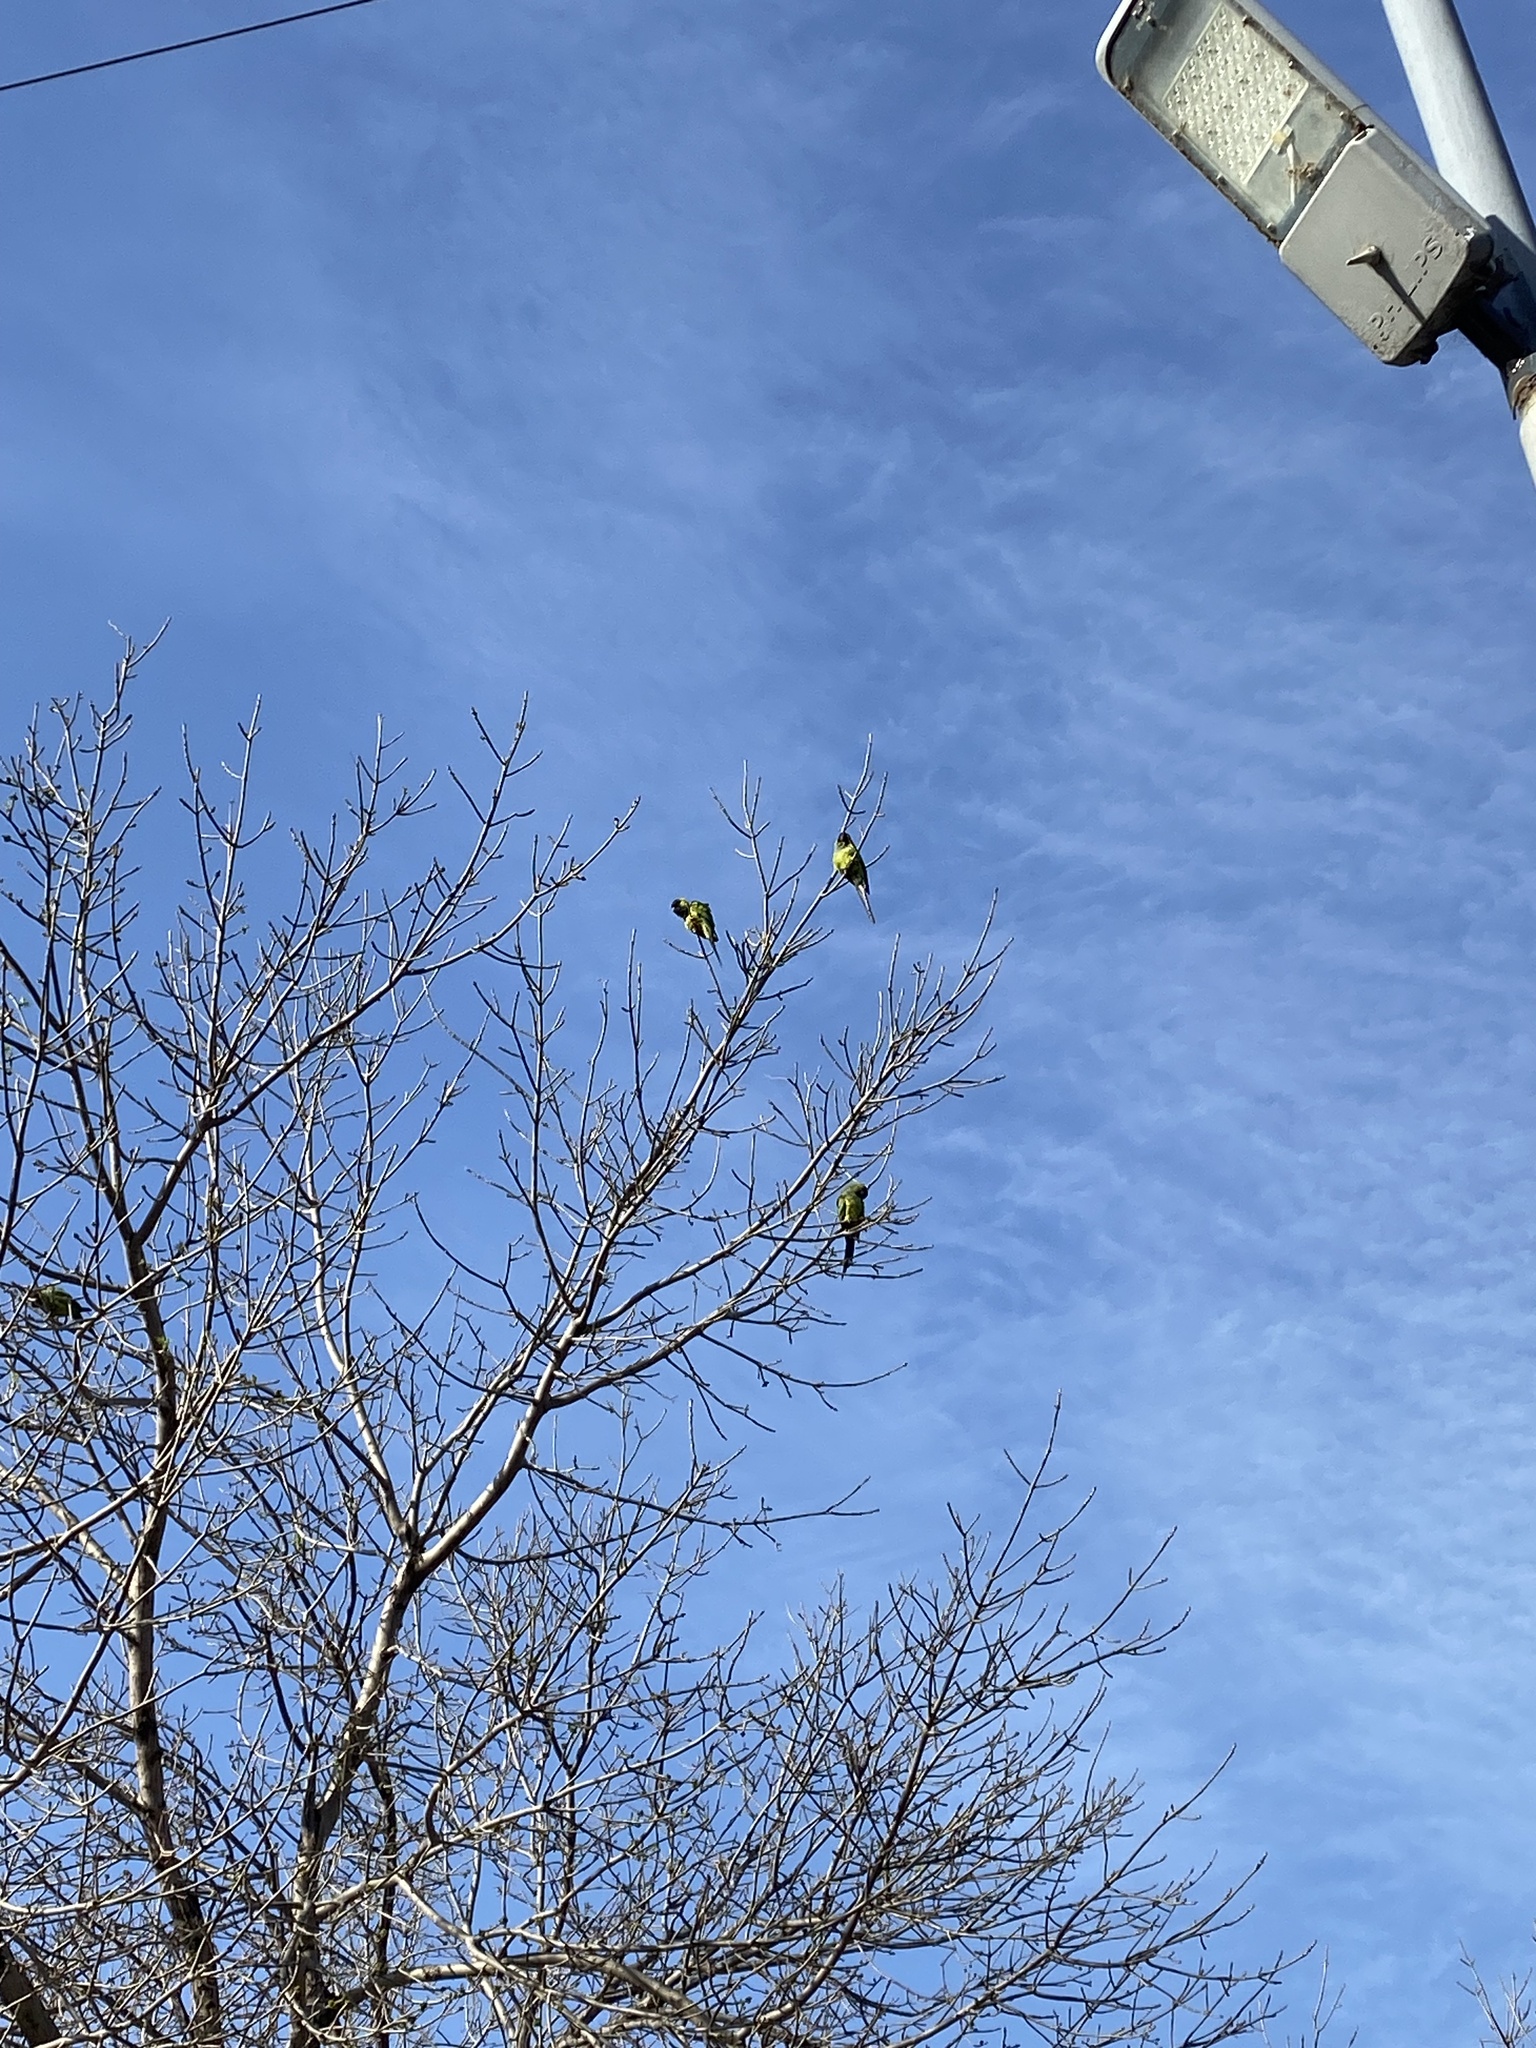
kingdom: Animalia
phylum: Chordata
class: Aves
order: Psittaciformes
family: Psittacidae
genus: Nandayus
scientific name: Nandayus nenday
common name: Nanday parakeet
